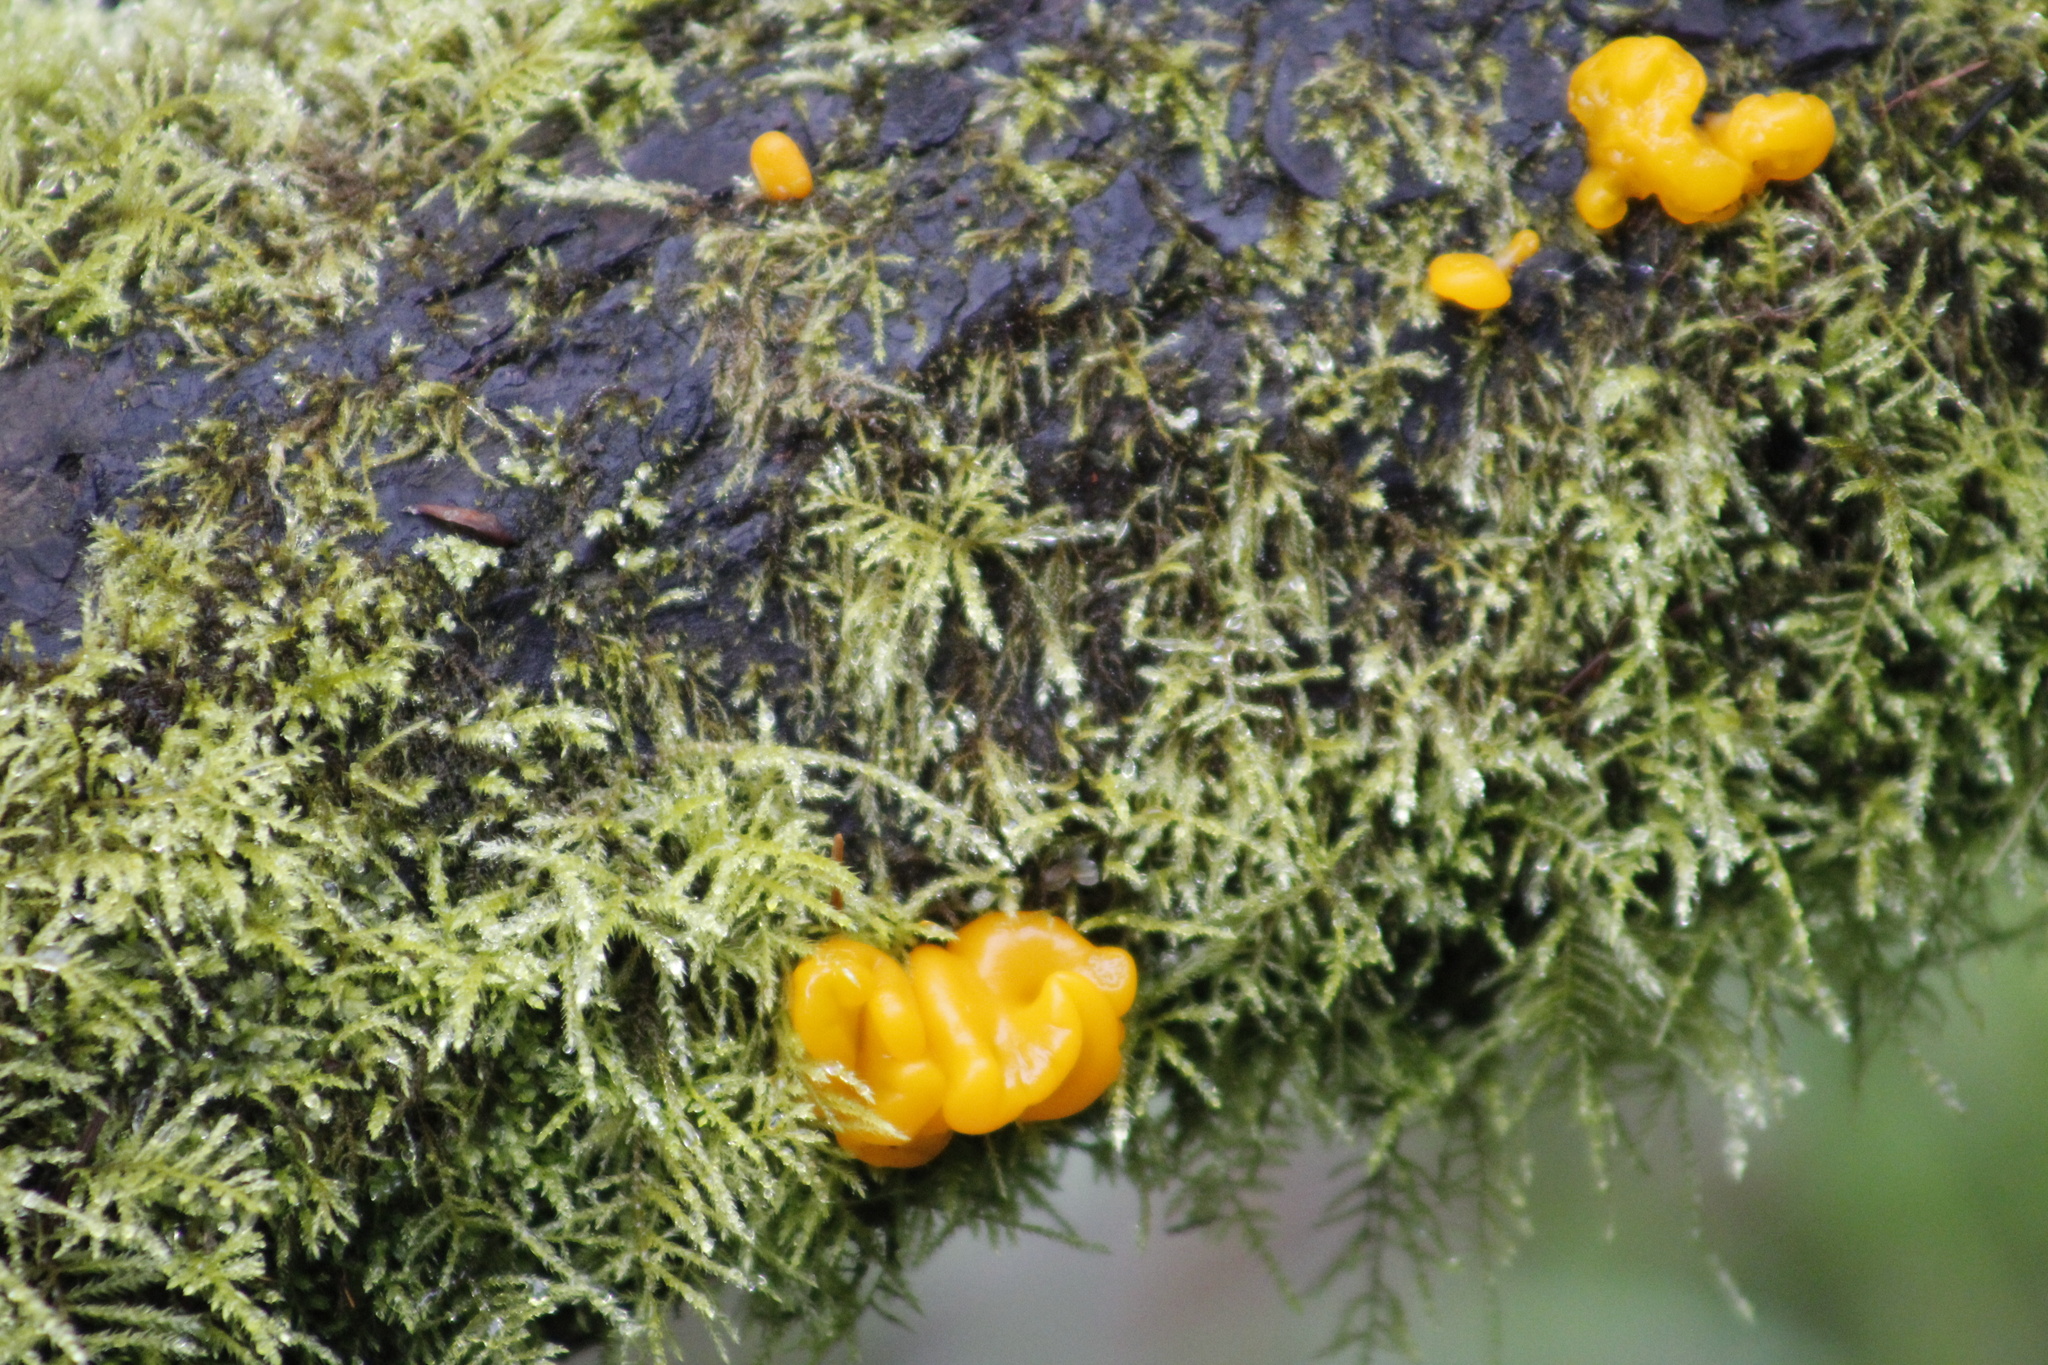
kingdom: Fungi
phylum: Basidiomycota
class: Dacrymycetes
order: Dacrymycetales
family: Dacrymycetaceae
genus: Dacrymyces
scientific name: Dacrymyces chrysospermus
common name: Orange jelly spot
